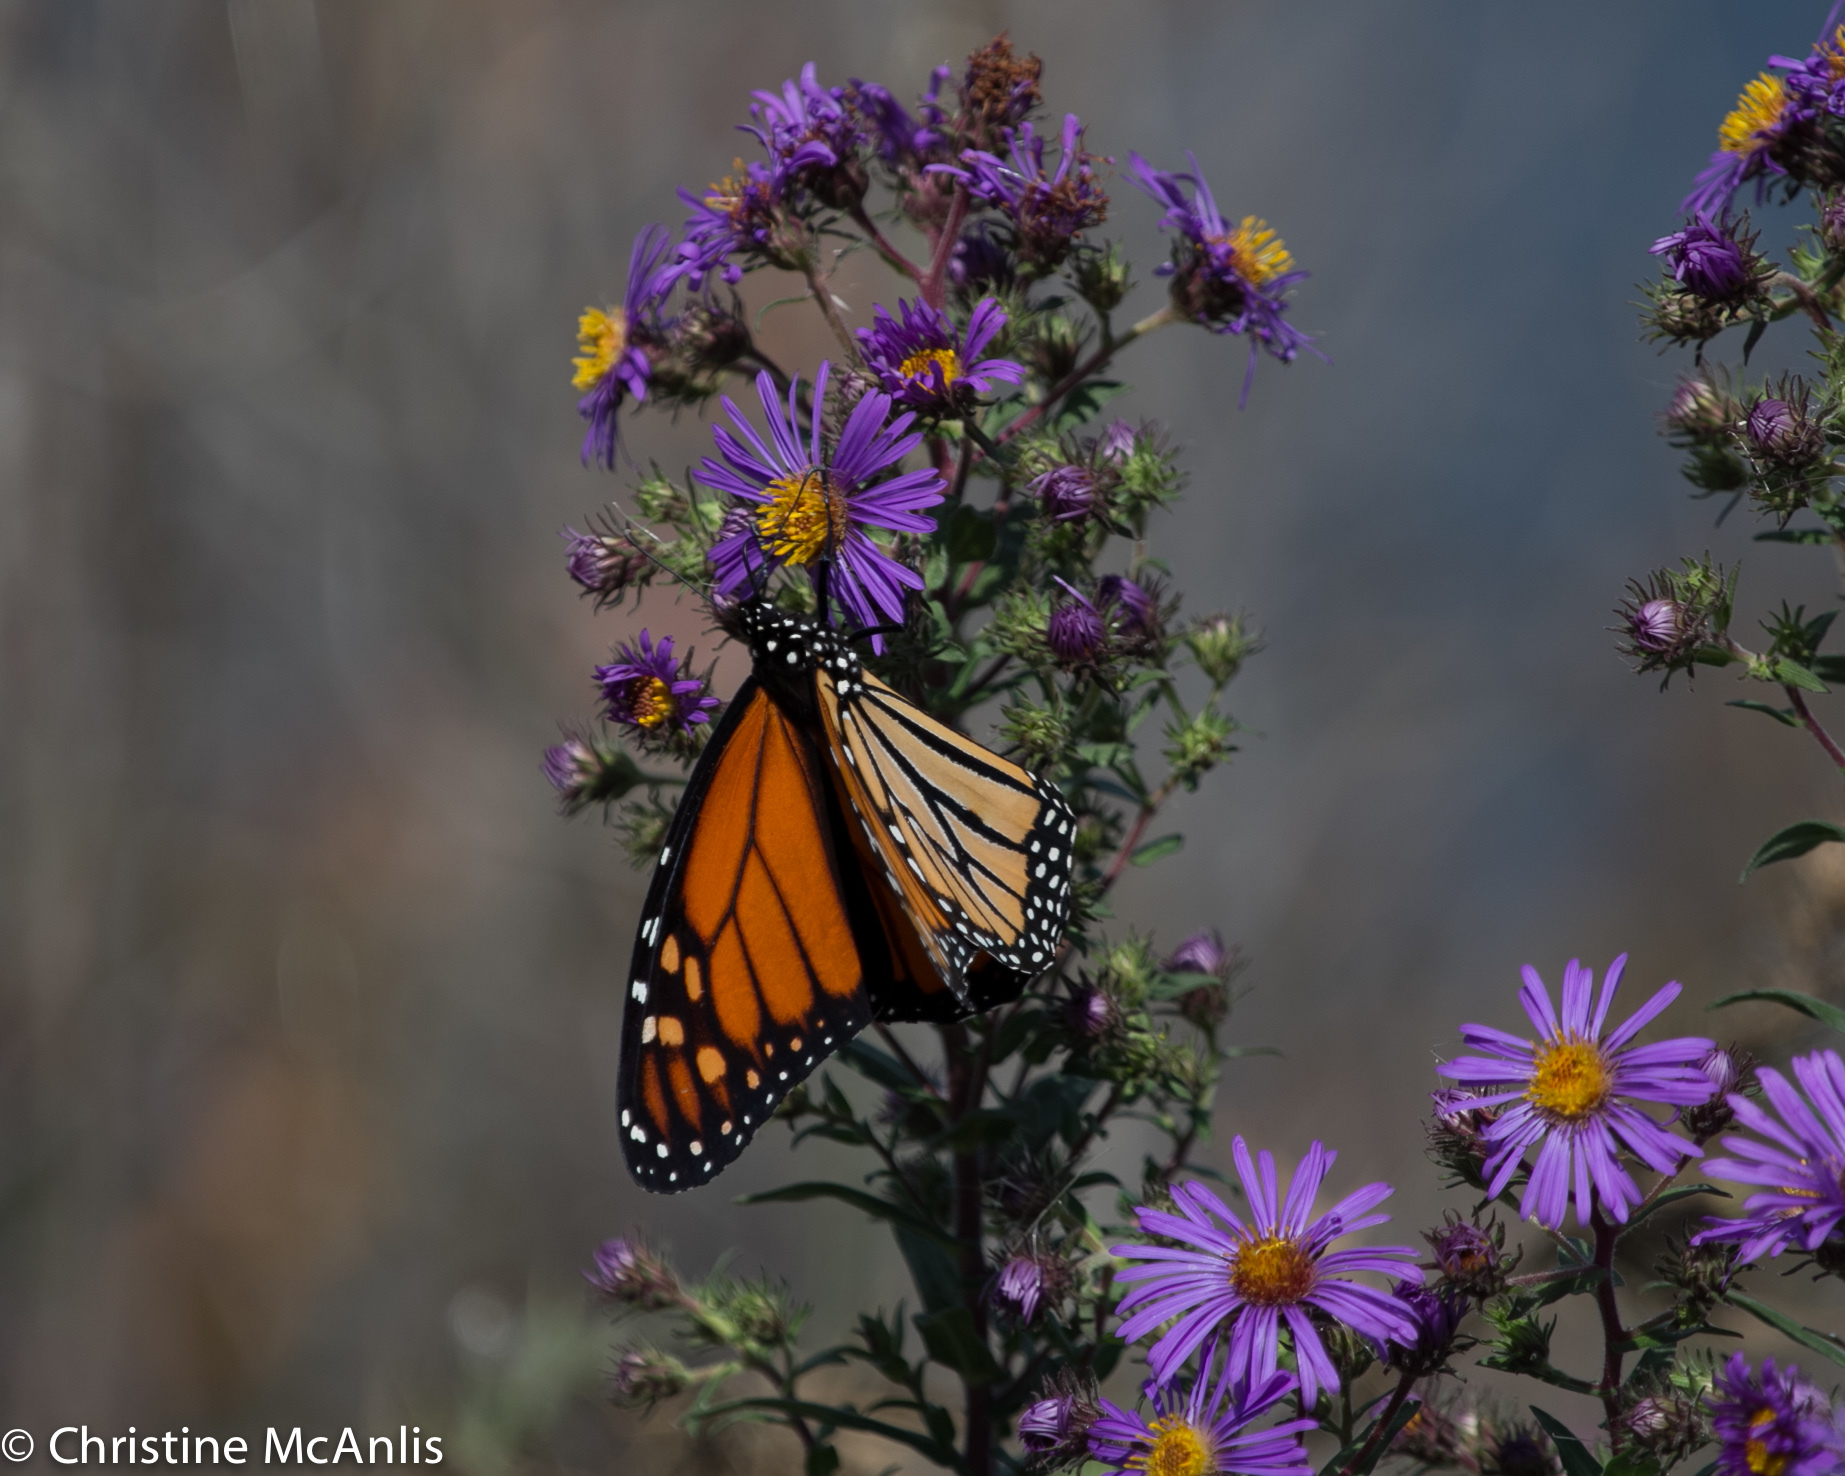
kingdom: Animalia
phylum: Arthropoda
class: Insecta
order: Lepidoptera
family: Nymphalidae
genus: Danaus
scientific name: Danaus plexippus
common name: Monarch
